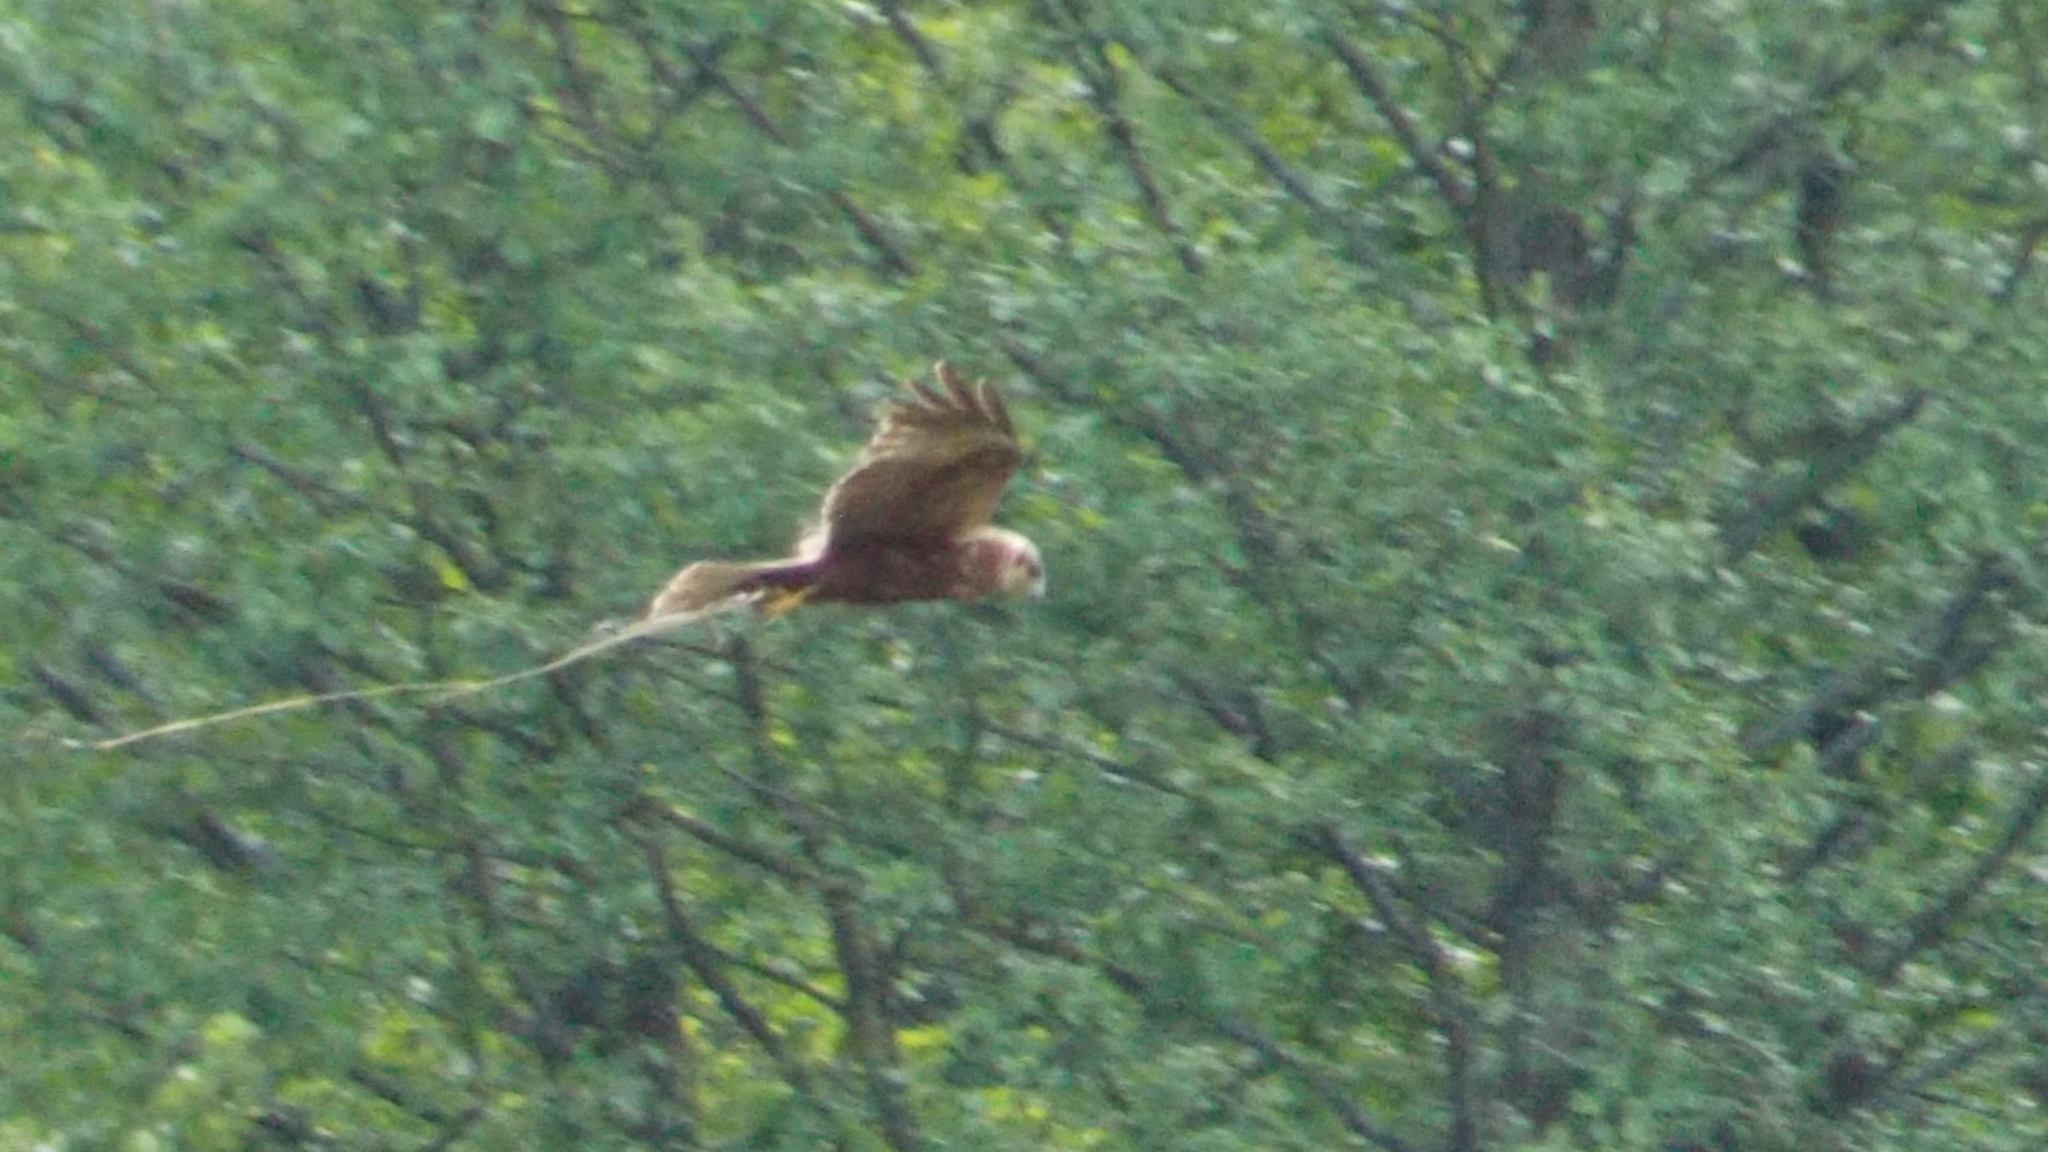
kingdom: Animalia
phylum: Chordata
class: Aves
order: Accipitriformes
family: Accipitridae
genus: Circus
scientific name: Circus aeruginosus
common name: Western marsh harrier
